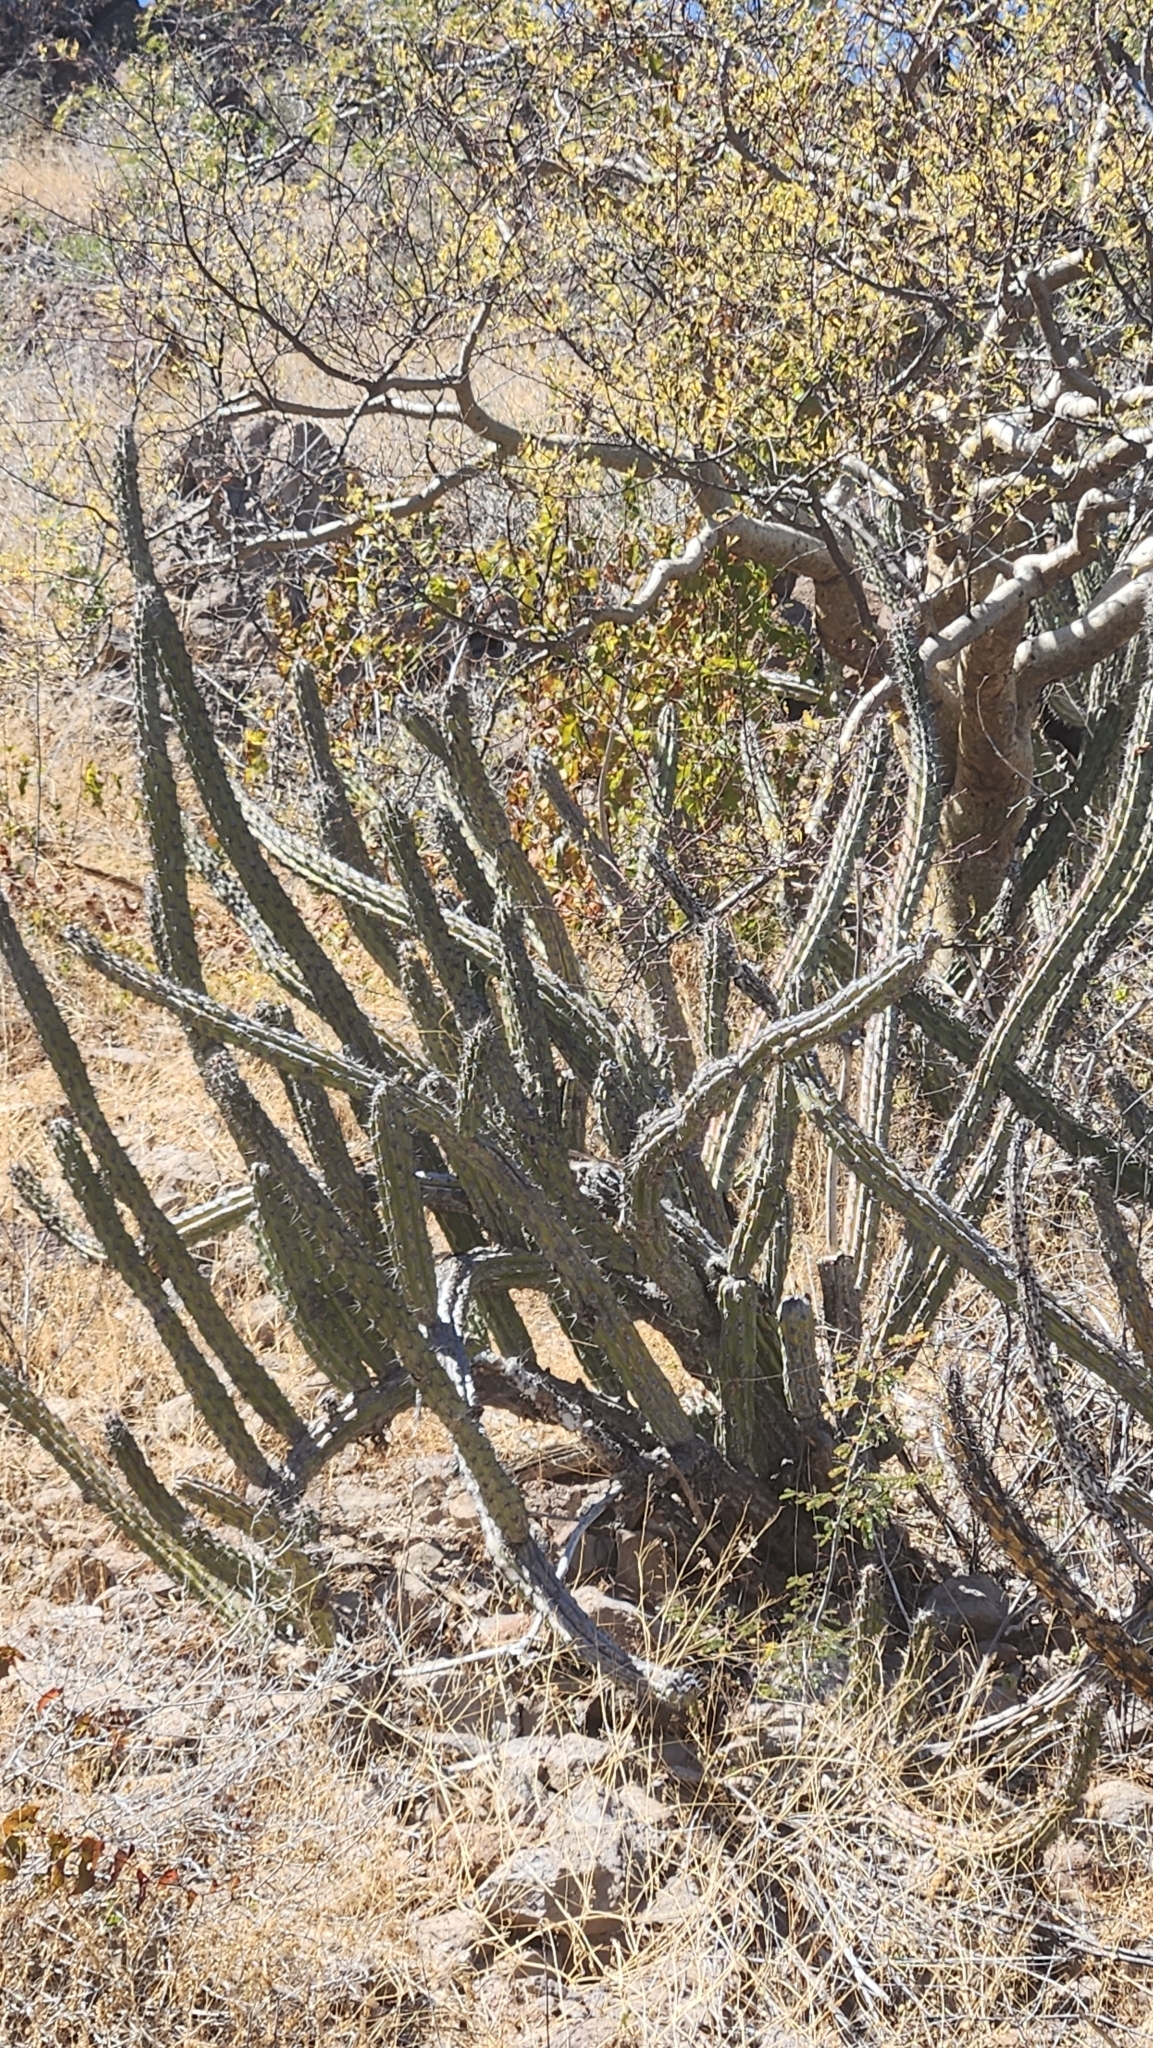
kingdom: Plantae
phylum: Tracheophyta
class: Magnoliopsida
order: Caryophyllales
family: Cactaceae
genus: Stenocereus
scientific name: Stenocereus gummosus
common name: Dagger cactus
